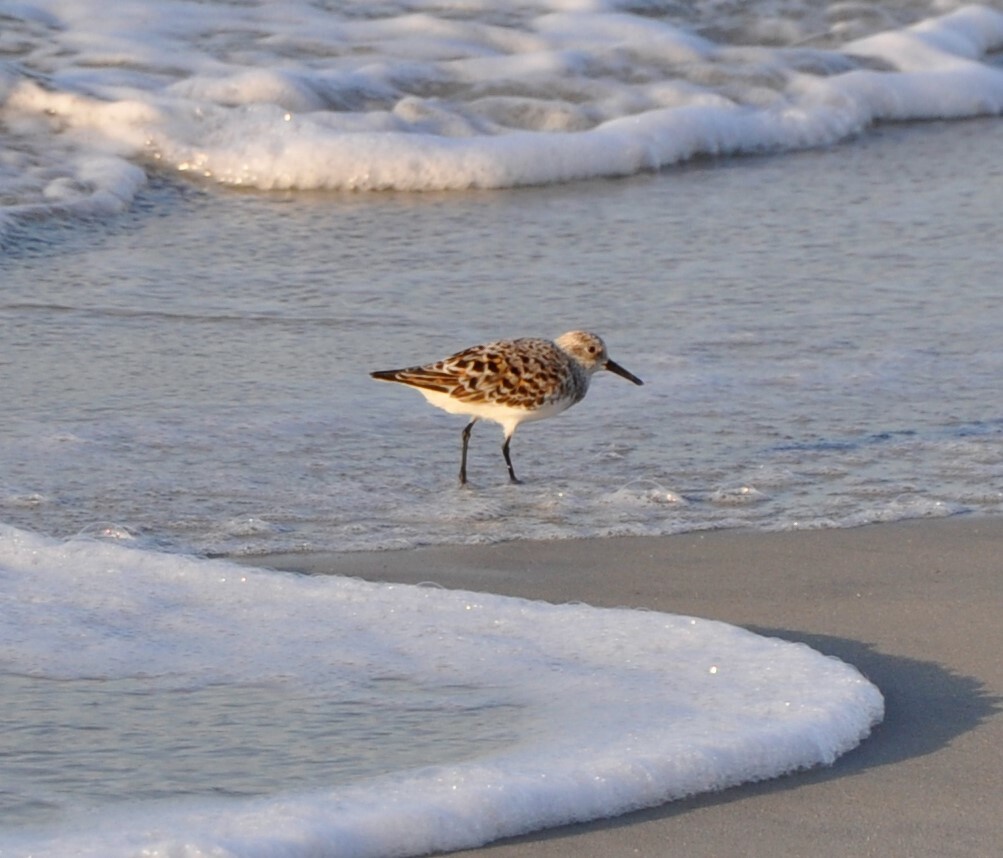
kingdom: Animalia
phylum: Chordata
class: Aves
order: Charadriiformes
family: Scolopacidae
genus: Calidris
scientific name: Calidris alba
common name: Sanderling
